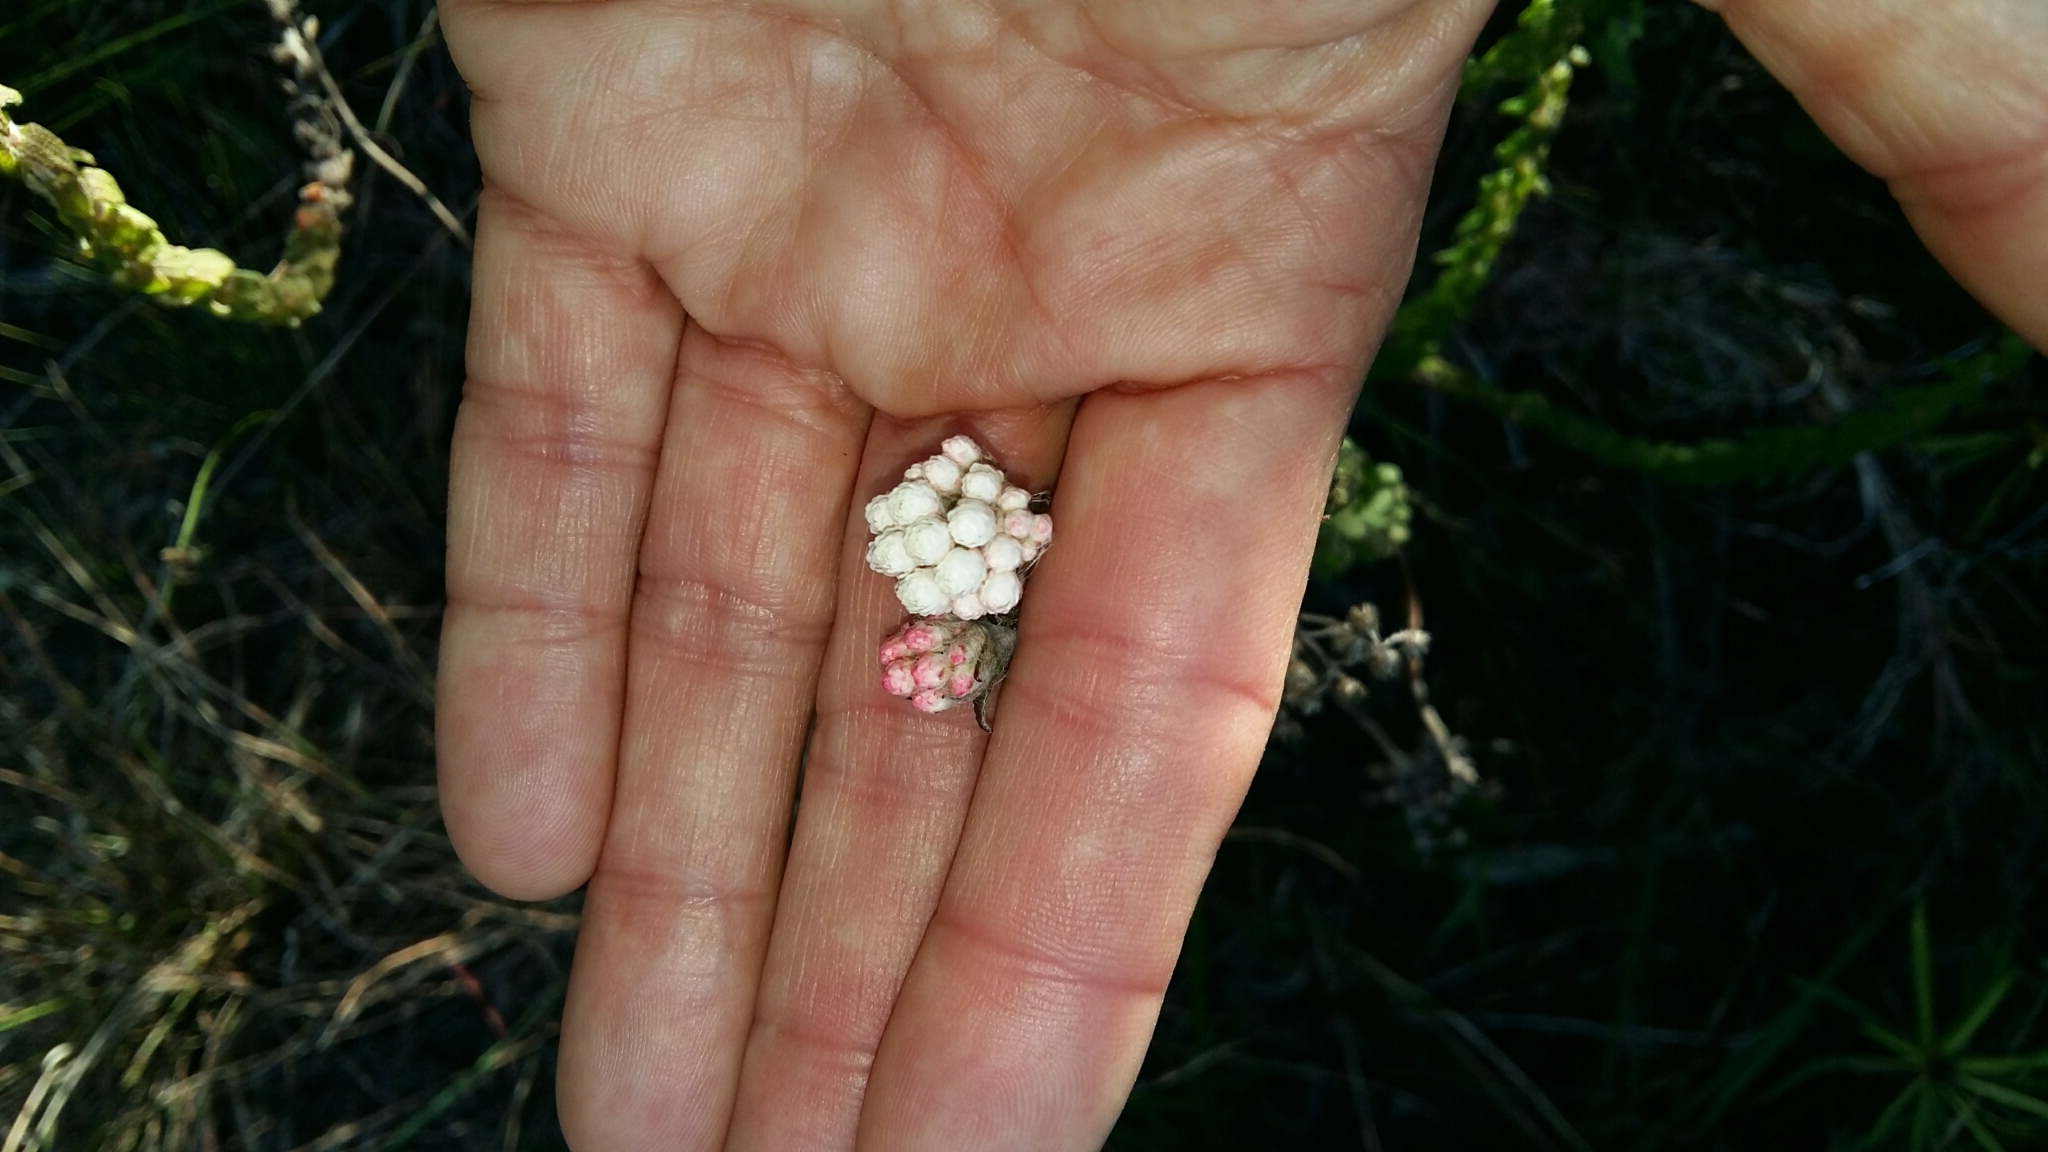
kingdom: Plantae
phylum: Tracheophyta
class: Magnoliopsida
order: Asterales
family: Asteraceae
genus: Helichrysum
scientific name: Helichrysum felinum
